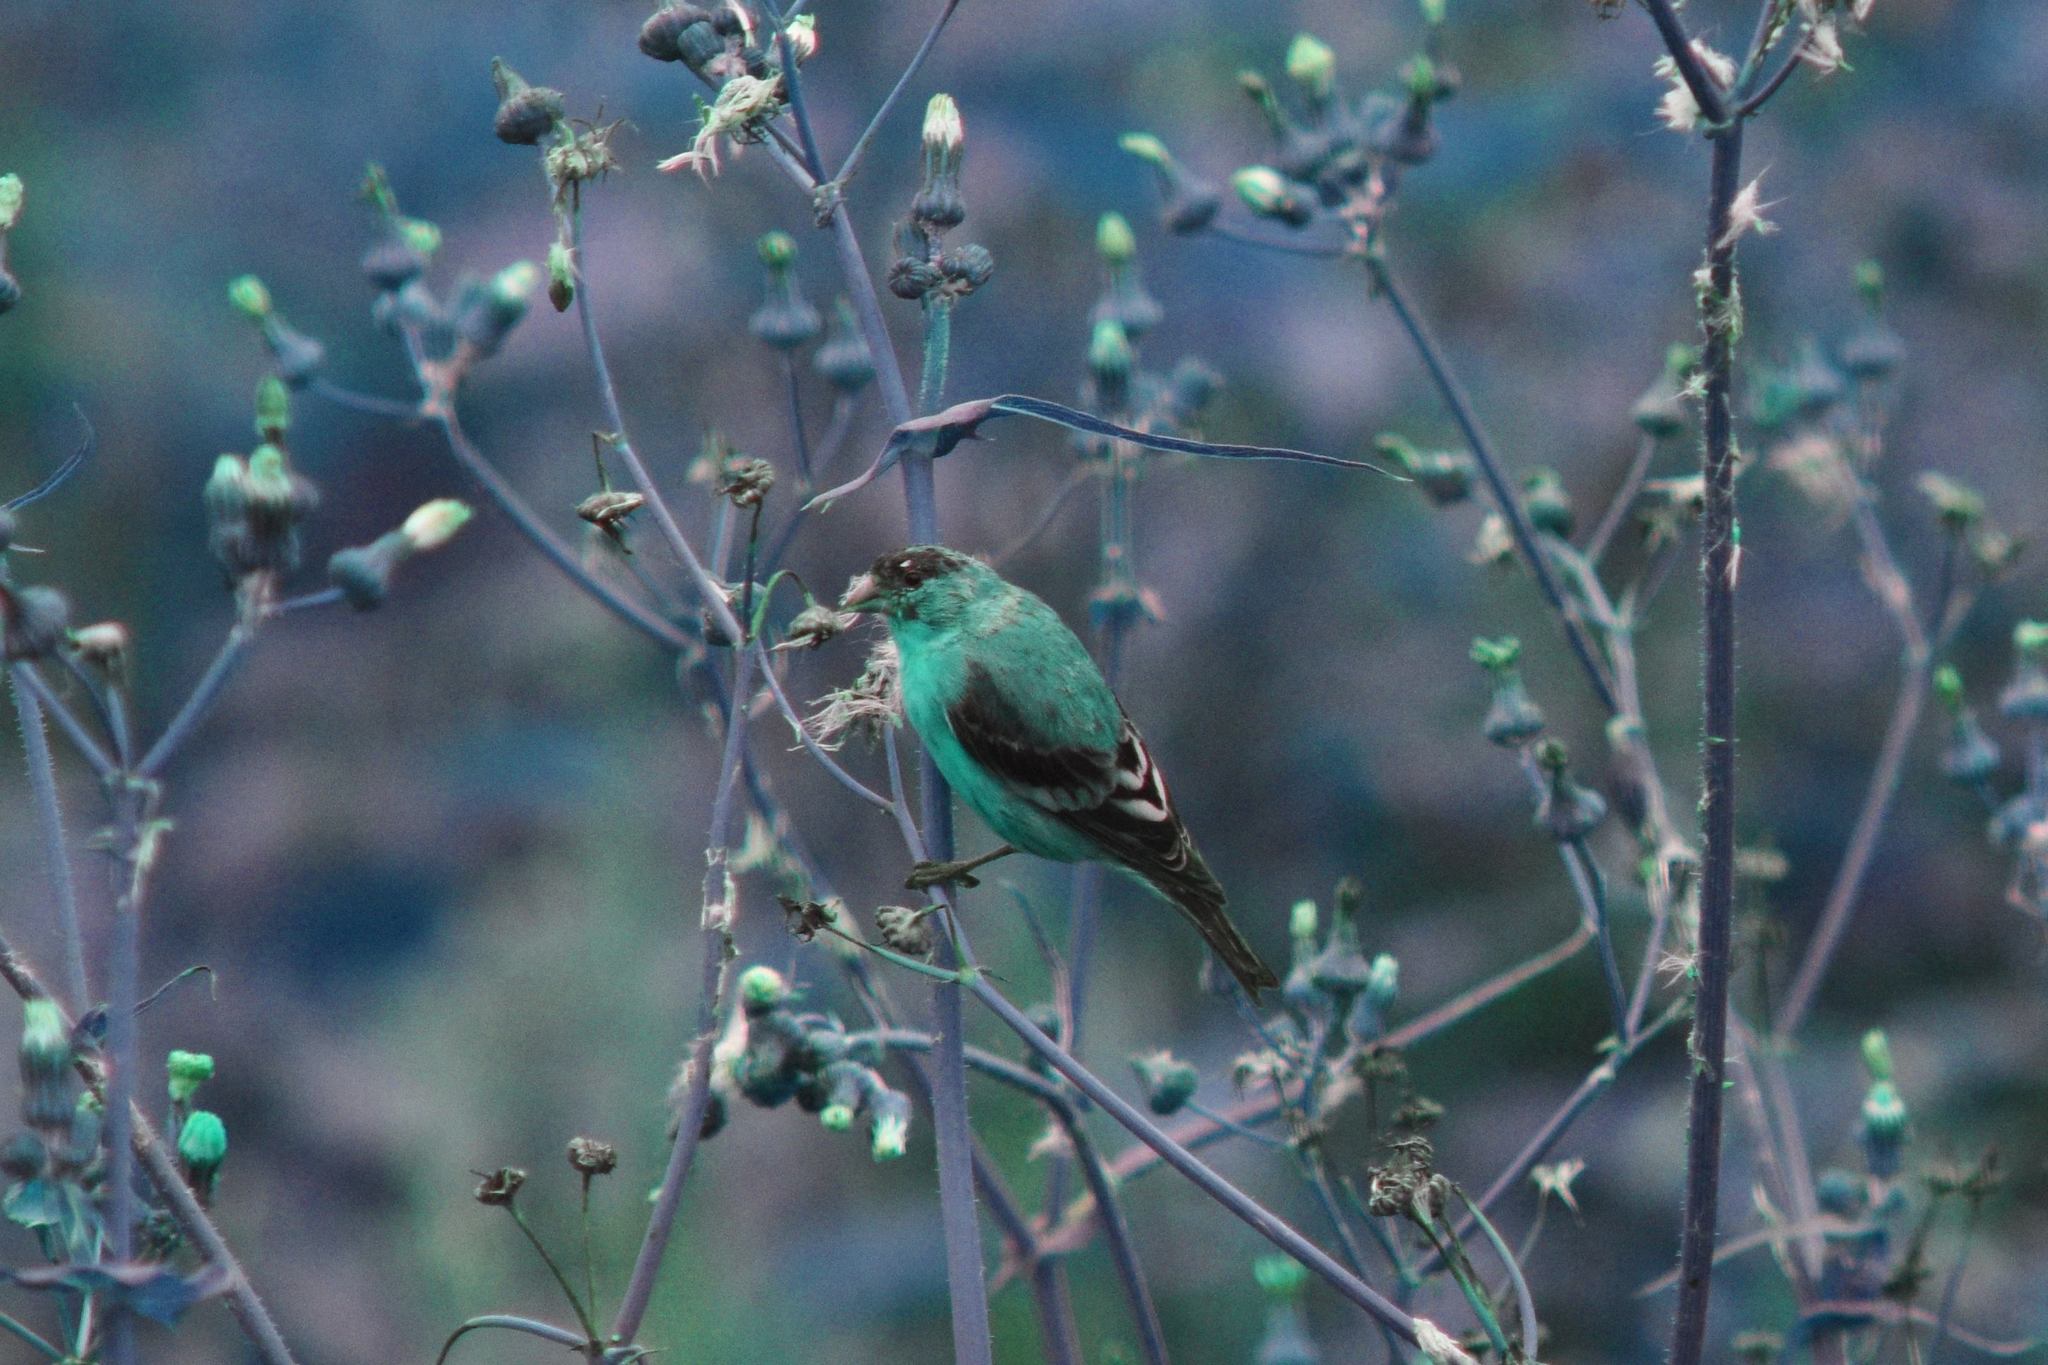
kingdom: Animalia
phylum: Chordata
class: Aves
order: Passeriformes
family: Fringillidae
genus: Spinus
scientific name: Spinus psaltria
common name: Lesser goldfinch
